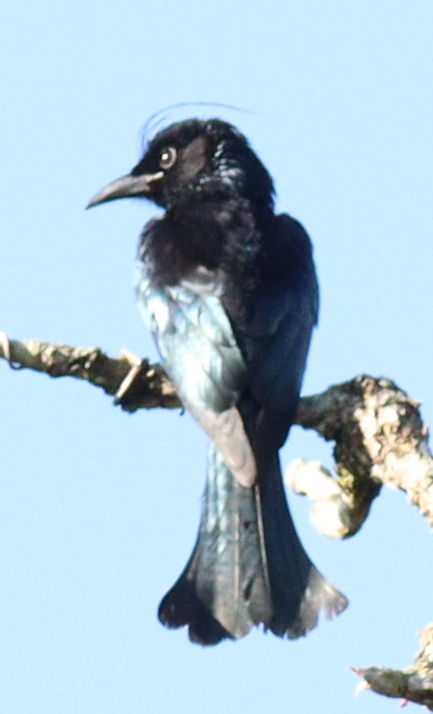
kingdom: Animalia
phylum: Chordata
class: Aves
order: Passeriformes
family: Dicruridae
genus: Dicrurus
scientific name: Dicrurus hottentottus
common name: Hair-crested drongo
